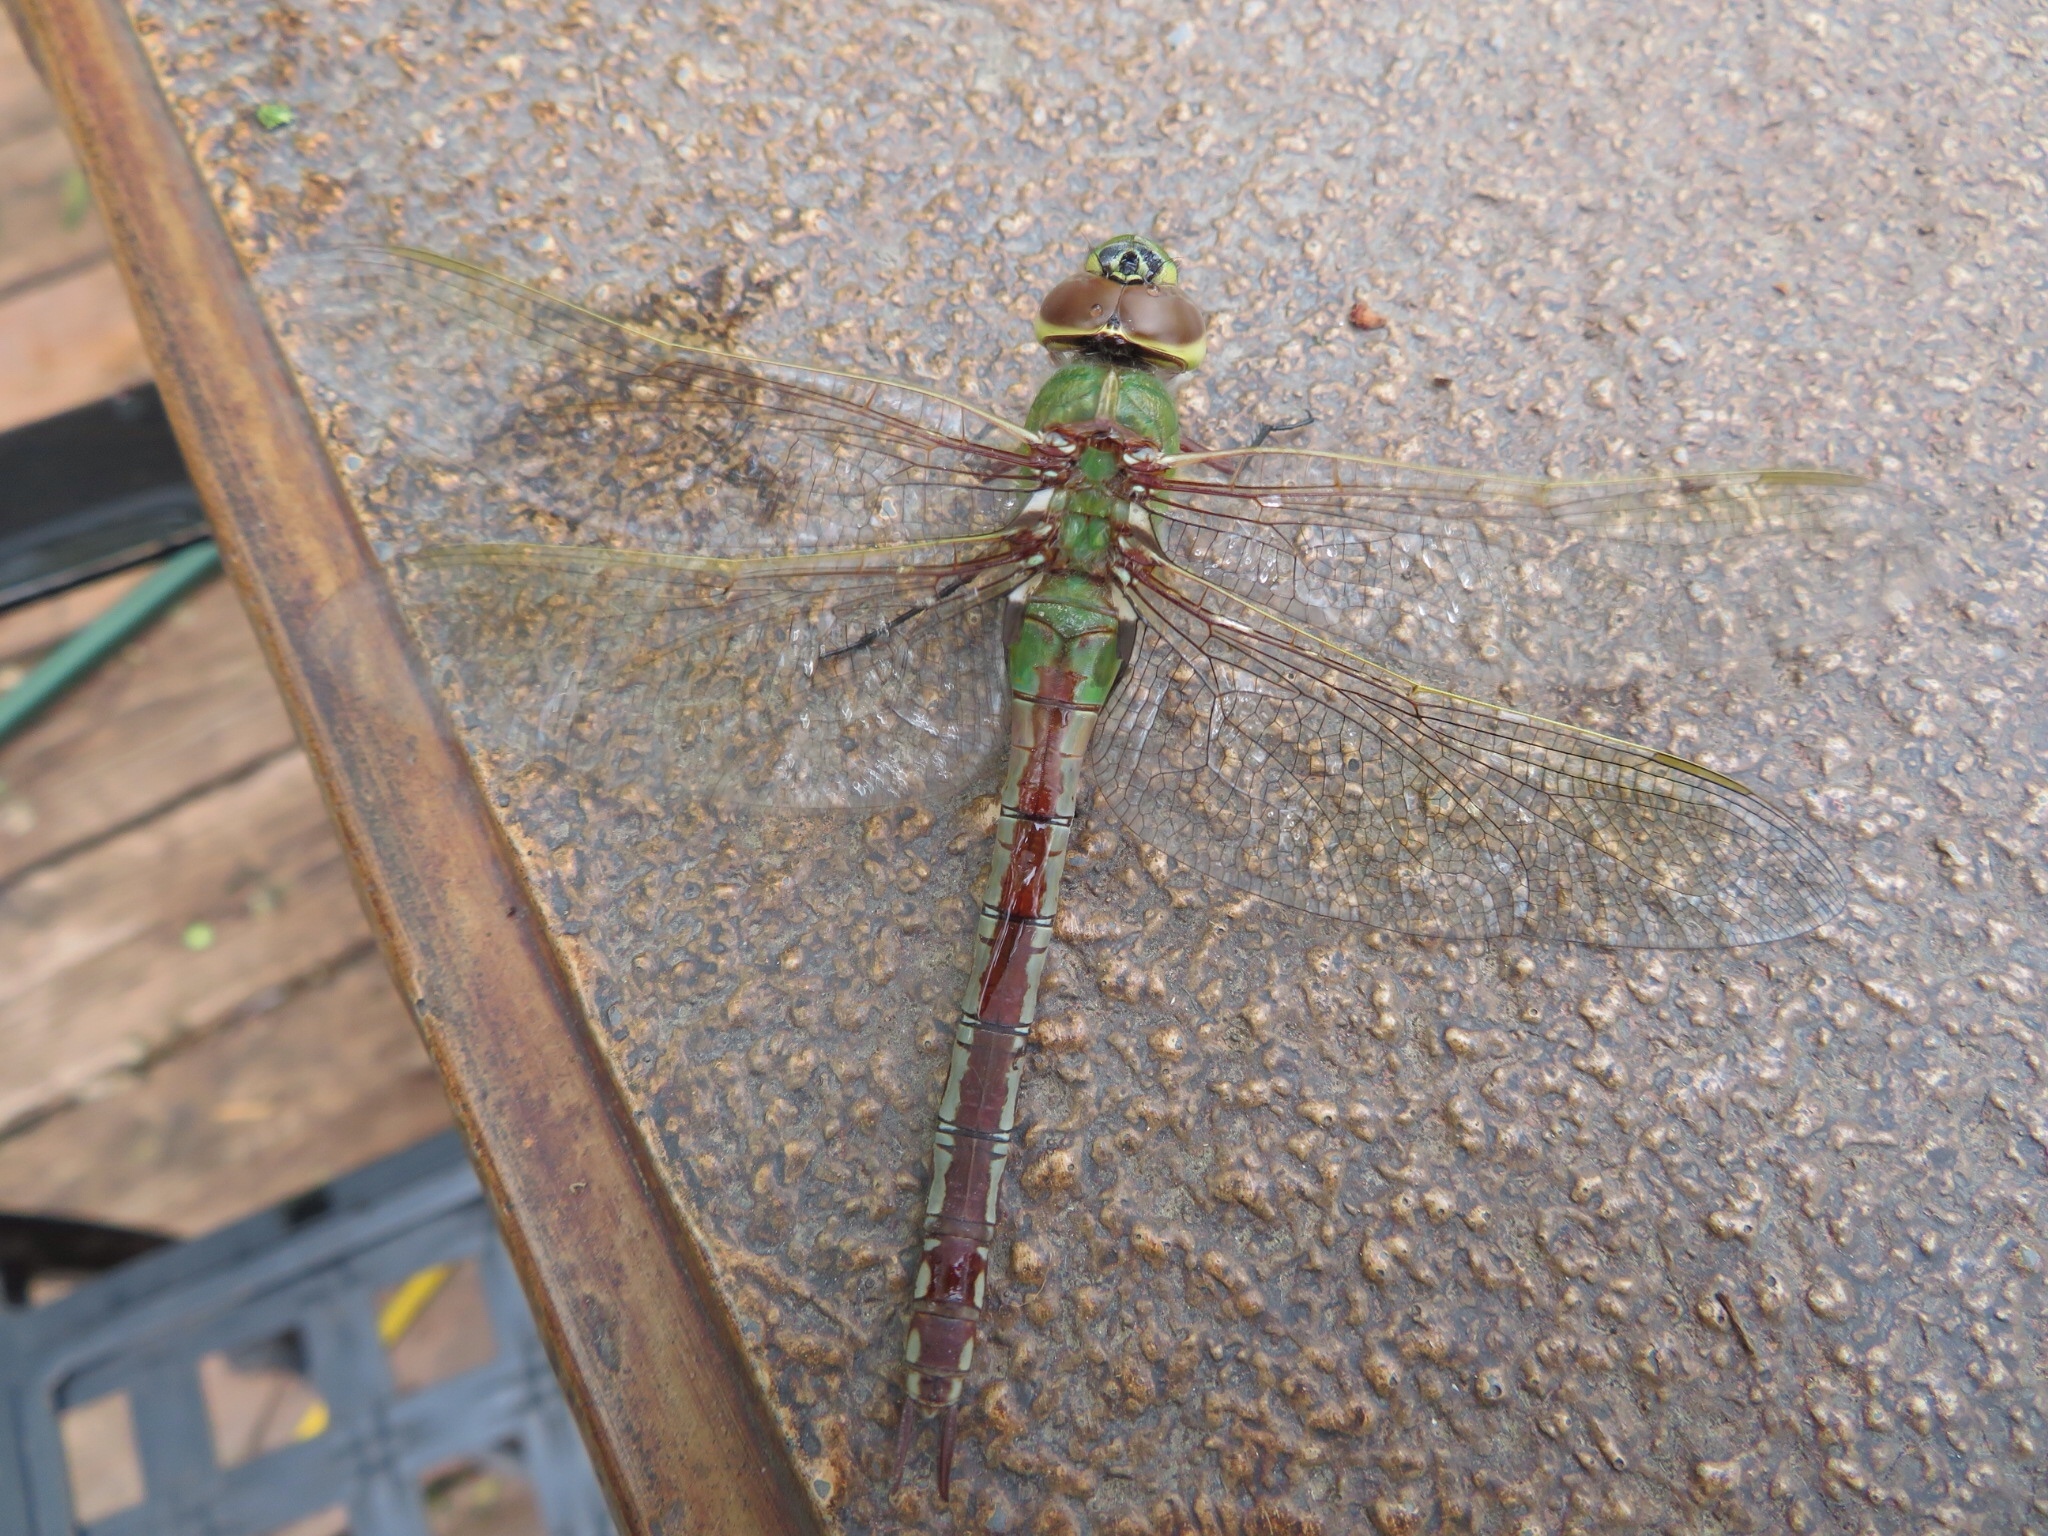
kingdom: Animalia
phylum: Arthropoda
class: Insecta
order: Odonata
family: Aeshnidae
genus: Anax
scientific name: Anax junius
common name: Common green darner
